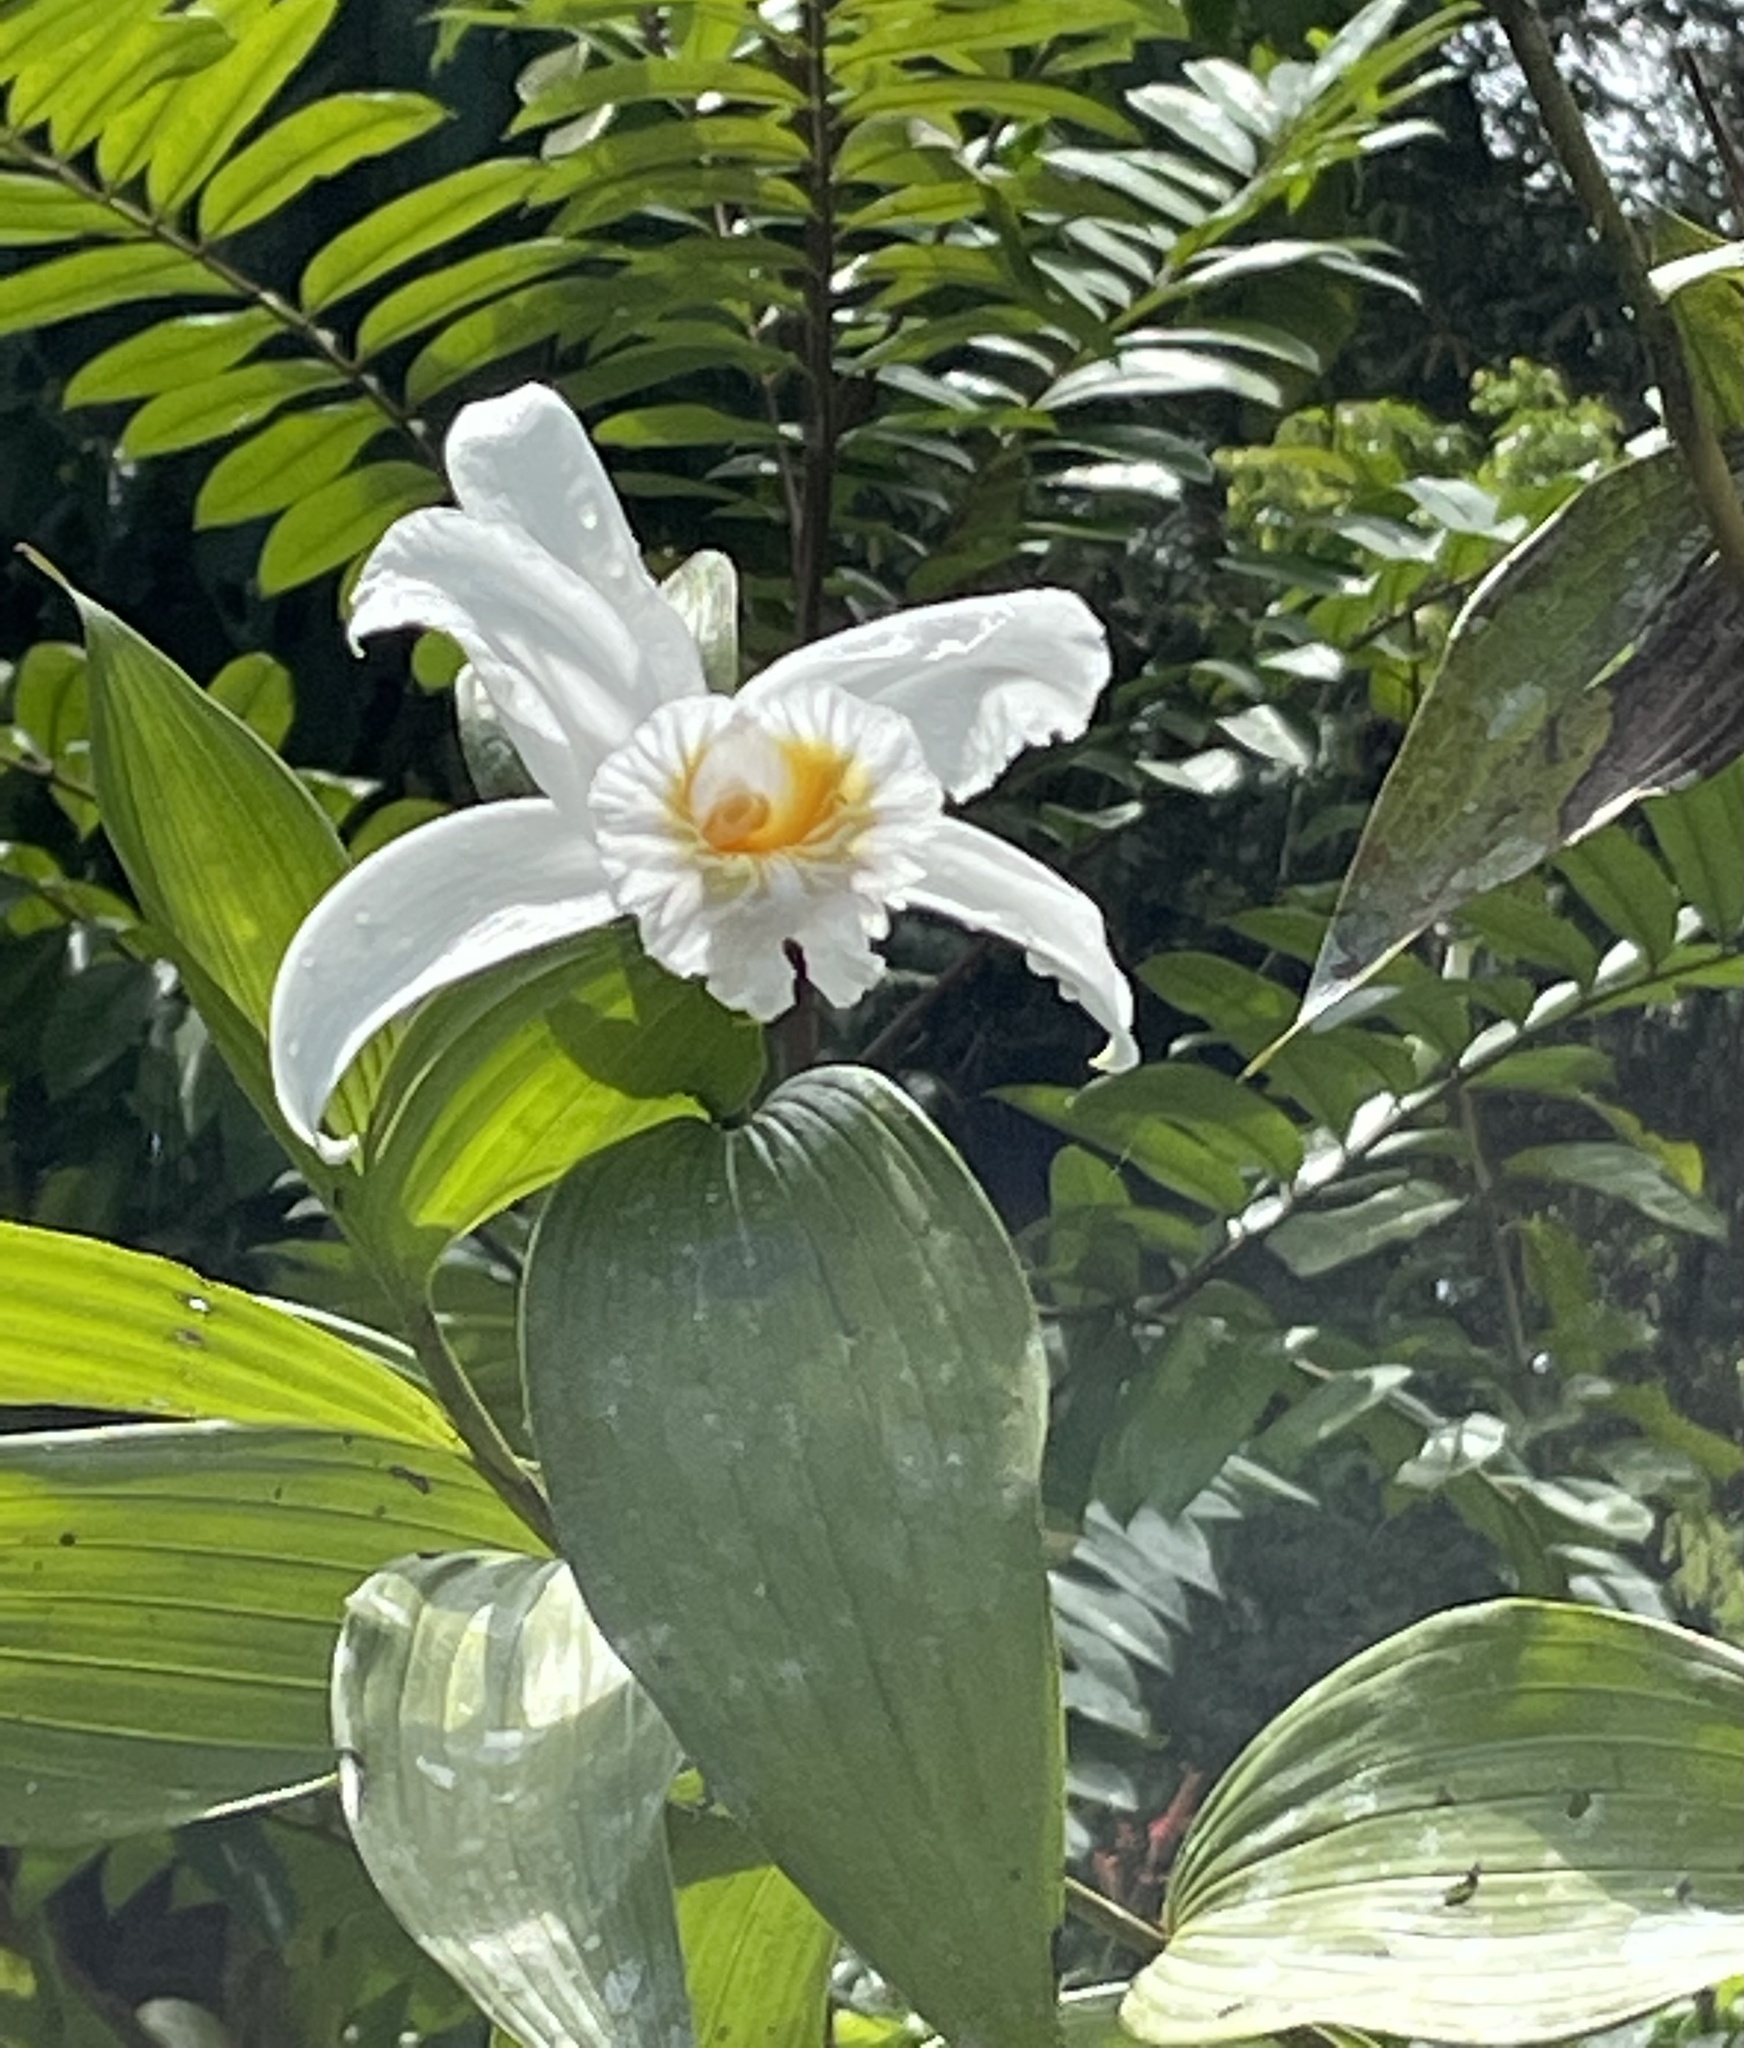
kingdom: Plantae
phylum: Tracheophyta
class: Liliopsida
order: Asparagales
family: Orchidaceae
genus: Sobralia
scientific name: Sobralia chrysostoma
